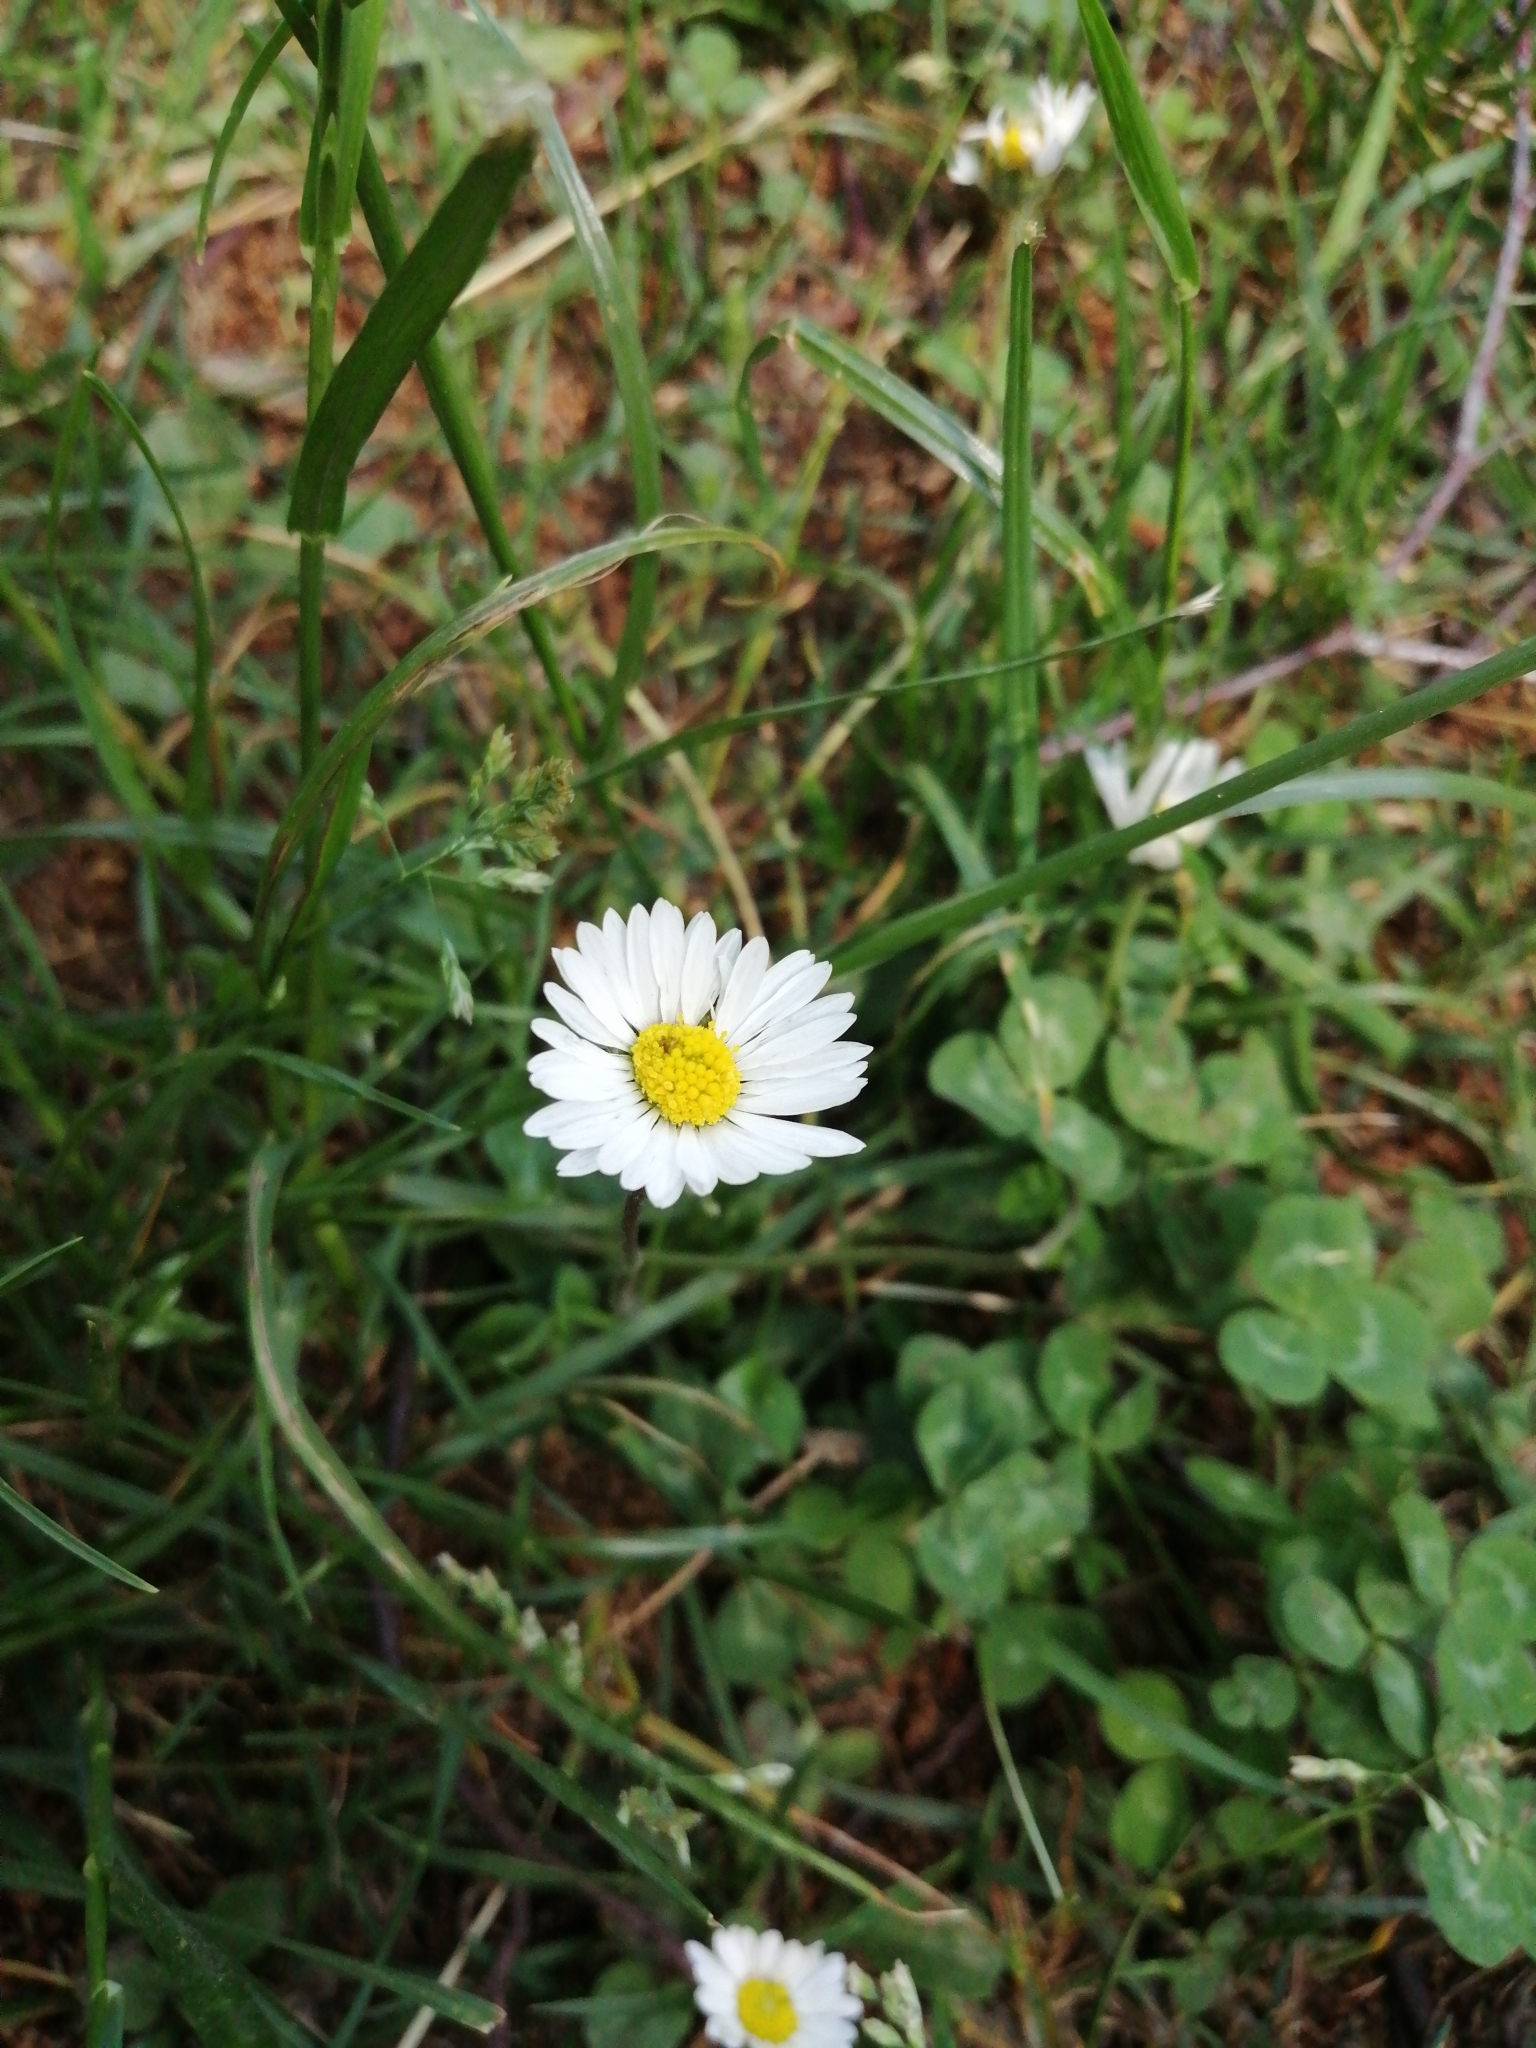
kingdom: Plantae
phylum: Tracheophyta
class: Magnoliopsida
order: Asterales
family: Asteraceae
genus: Bellis
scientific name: Bellis perennis
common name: Lawndaisy
